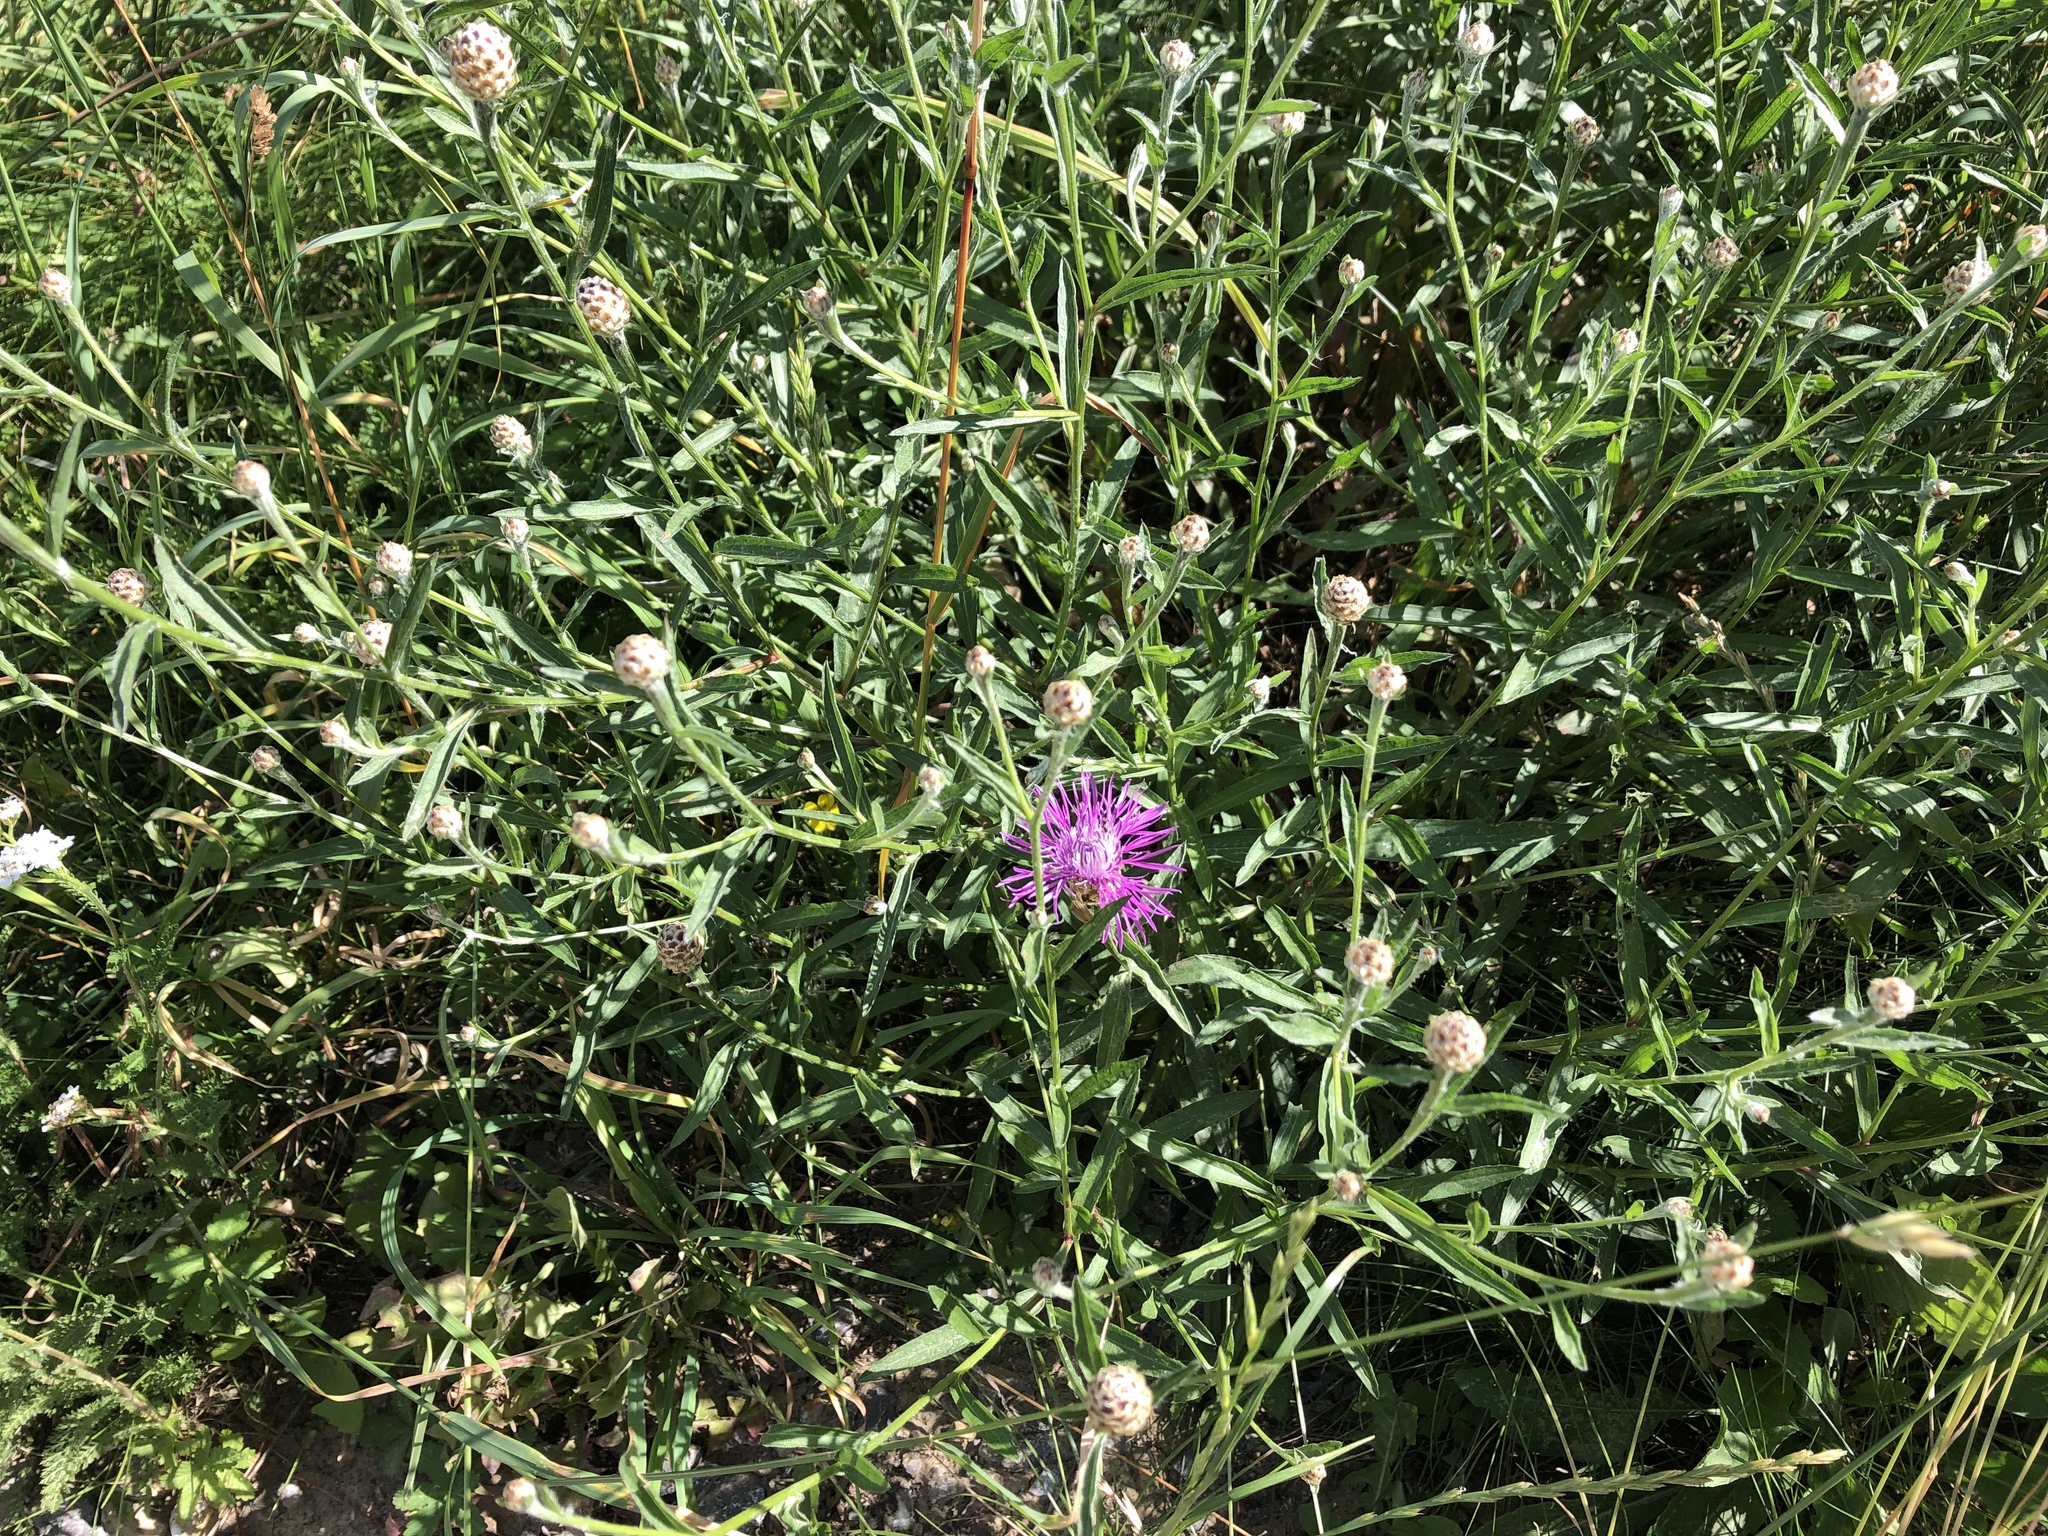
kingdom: Plantae
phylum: Tracheophyta
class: Magnoliopsida
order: Asterales
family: Asteraceae
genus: Centaurea
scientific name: Centaurea jacea
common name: Brown knapweed
